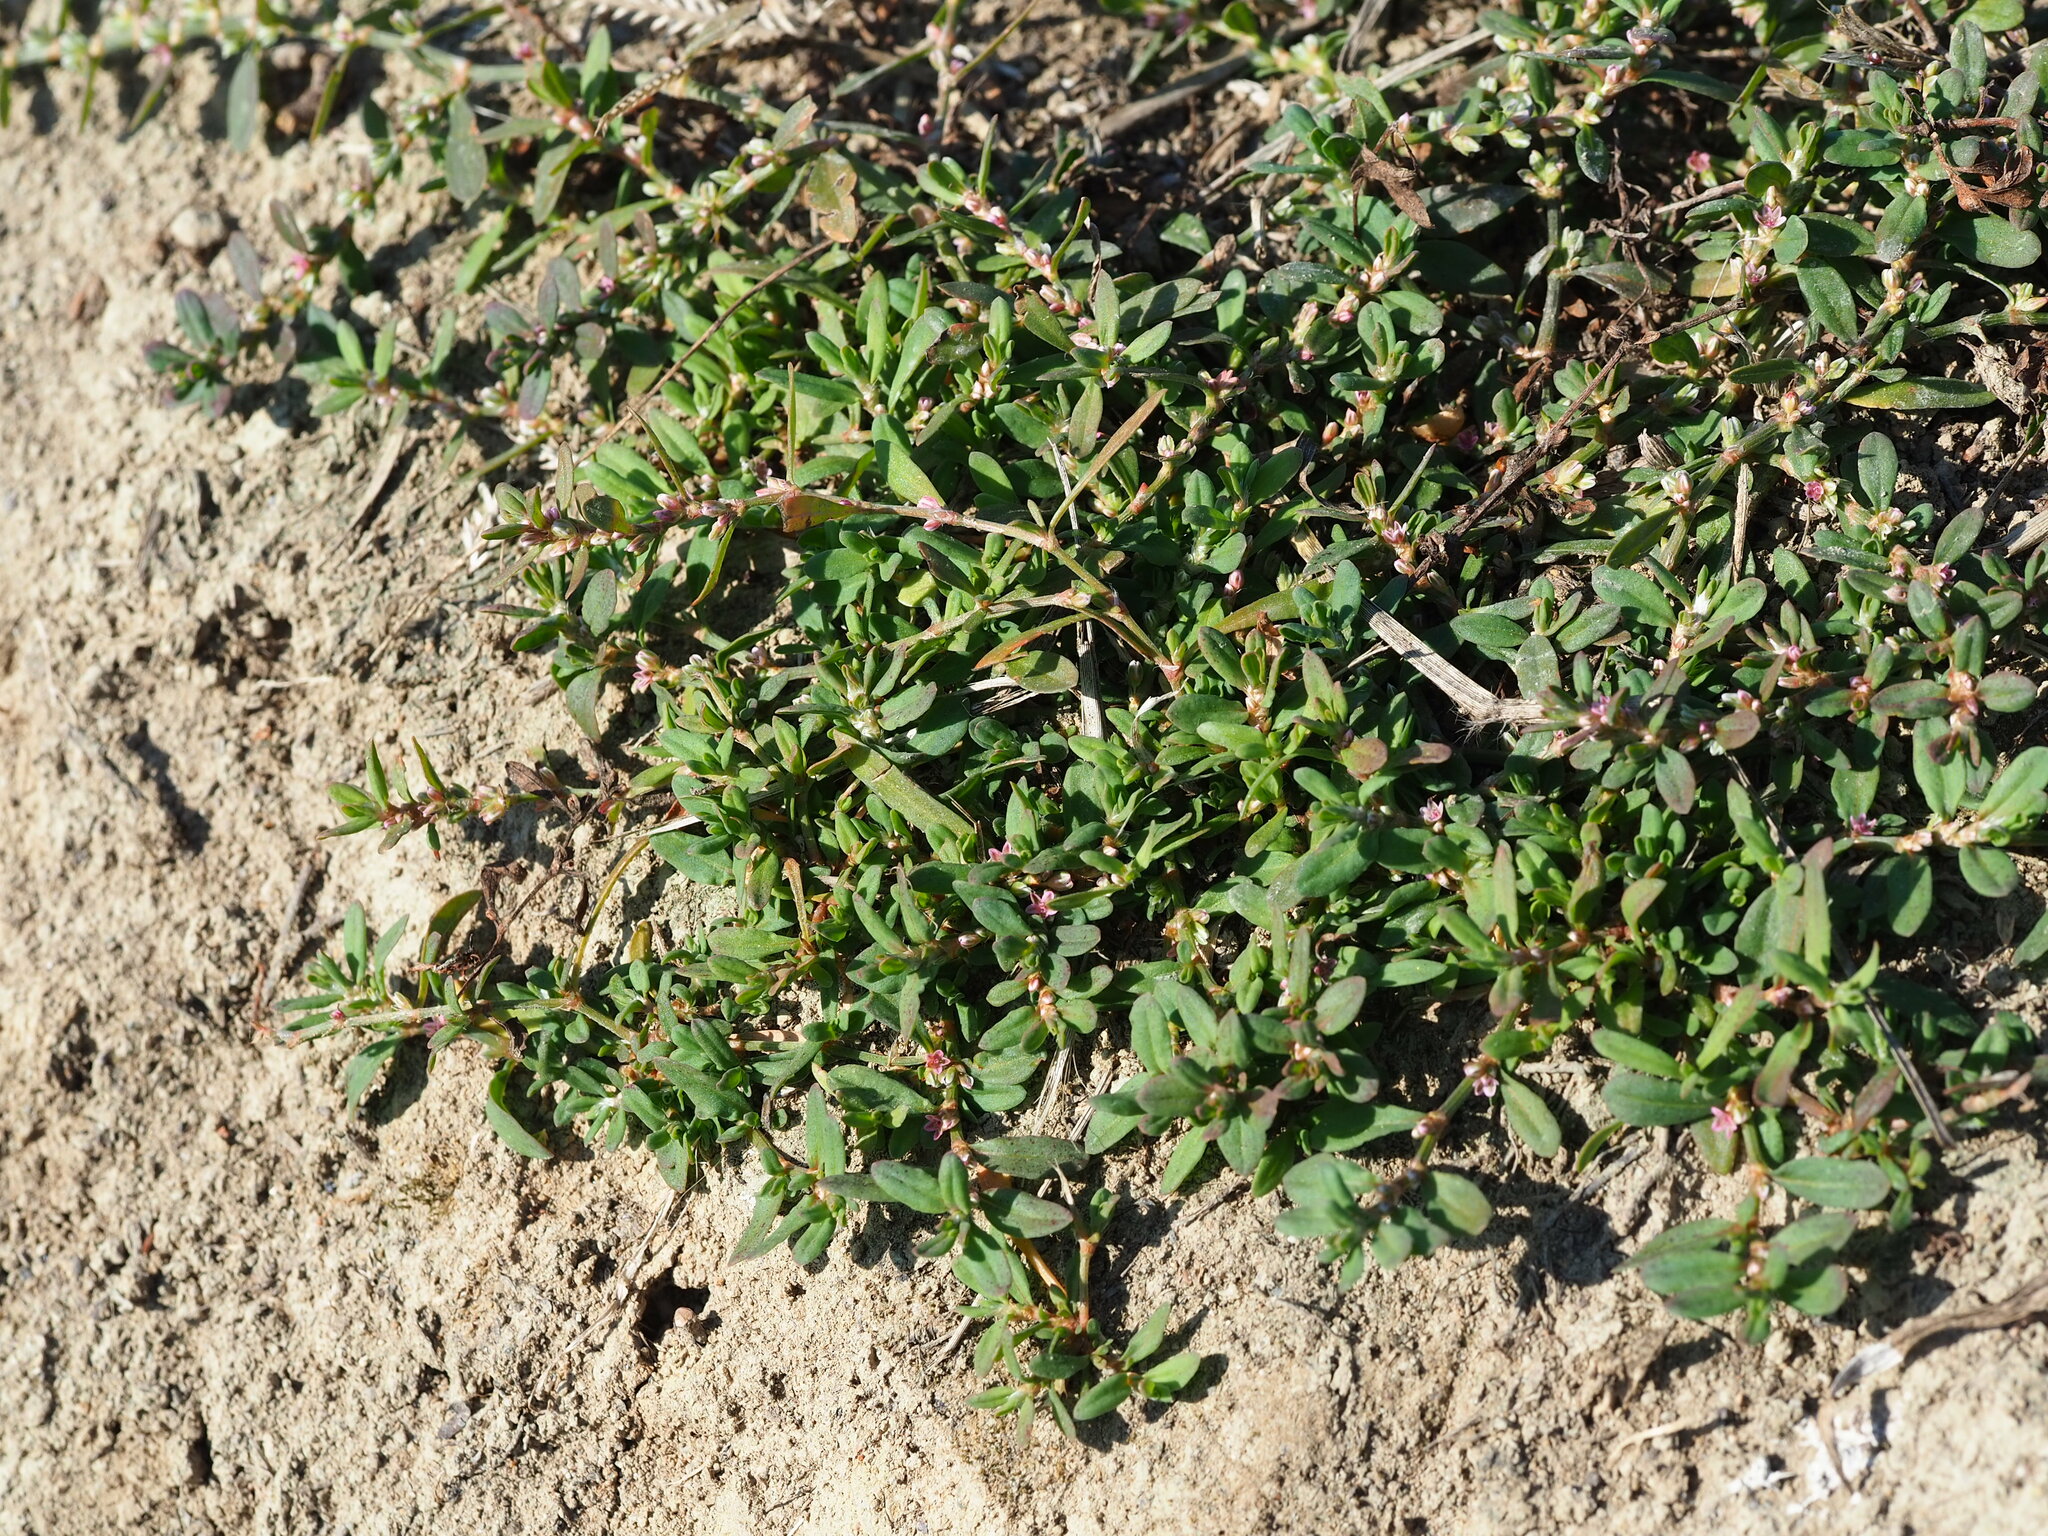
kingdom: Plantae
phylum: Tracheophyta
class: Magnoliopsida
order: Caryophyllales
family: Polygonaceae
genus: Polygonum
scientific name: Polygonum plebeium
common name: Common knotweed
